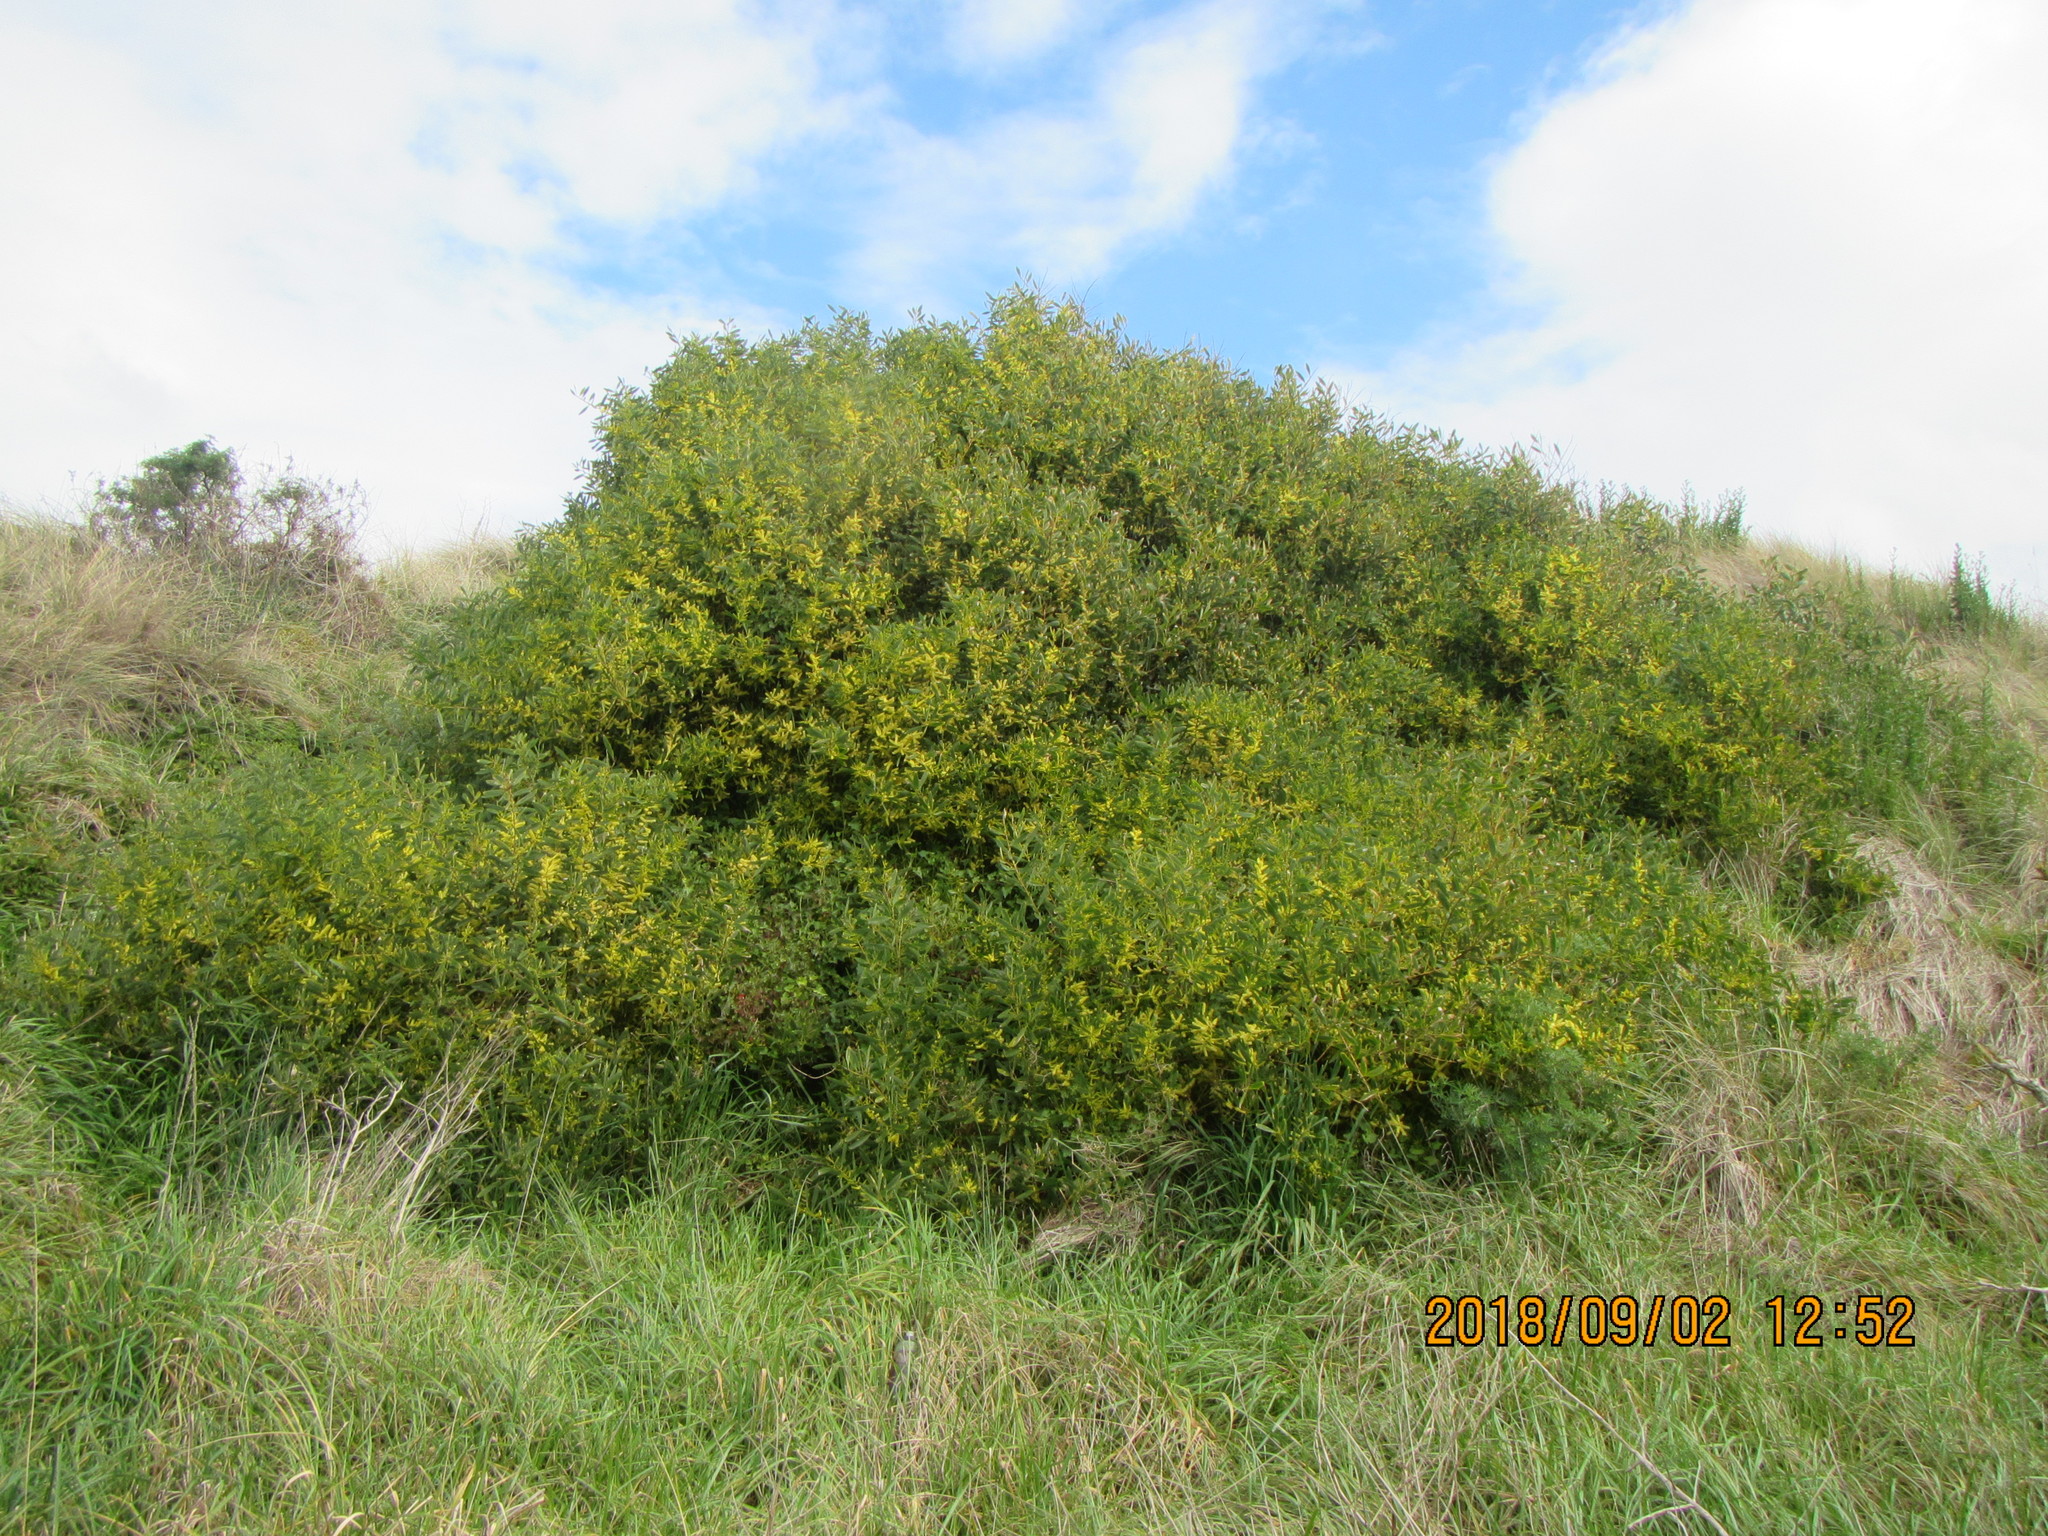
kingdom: Plantae
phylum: Tracheophyta
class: Magnoliopsida
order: Fabales
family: Fabaceae
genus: Acacia
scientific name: Acacia longifolia
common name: Sydney golden wattle
